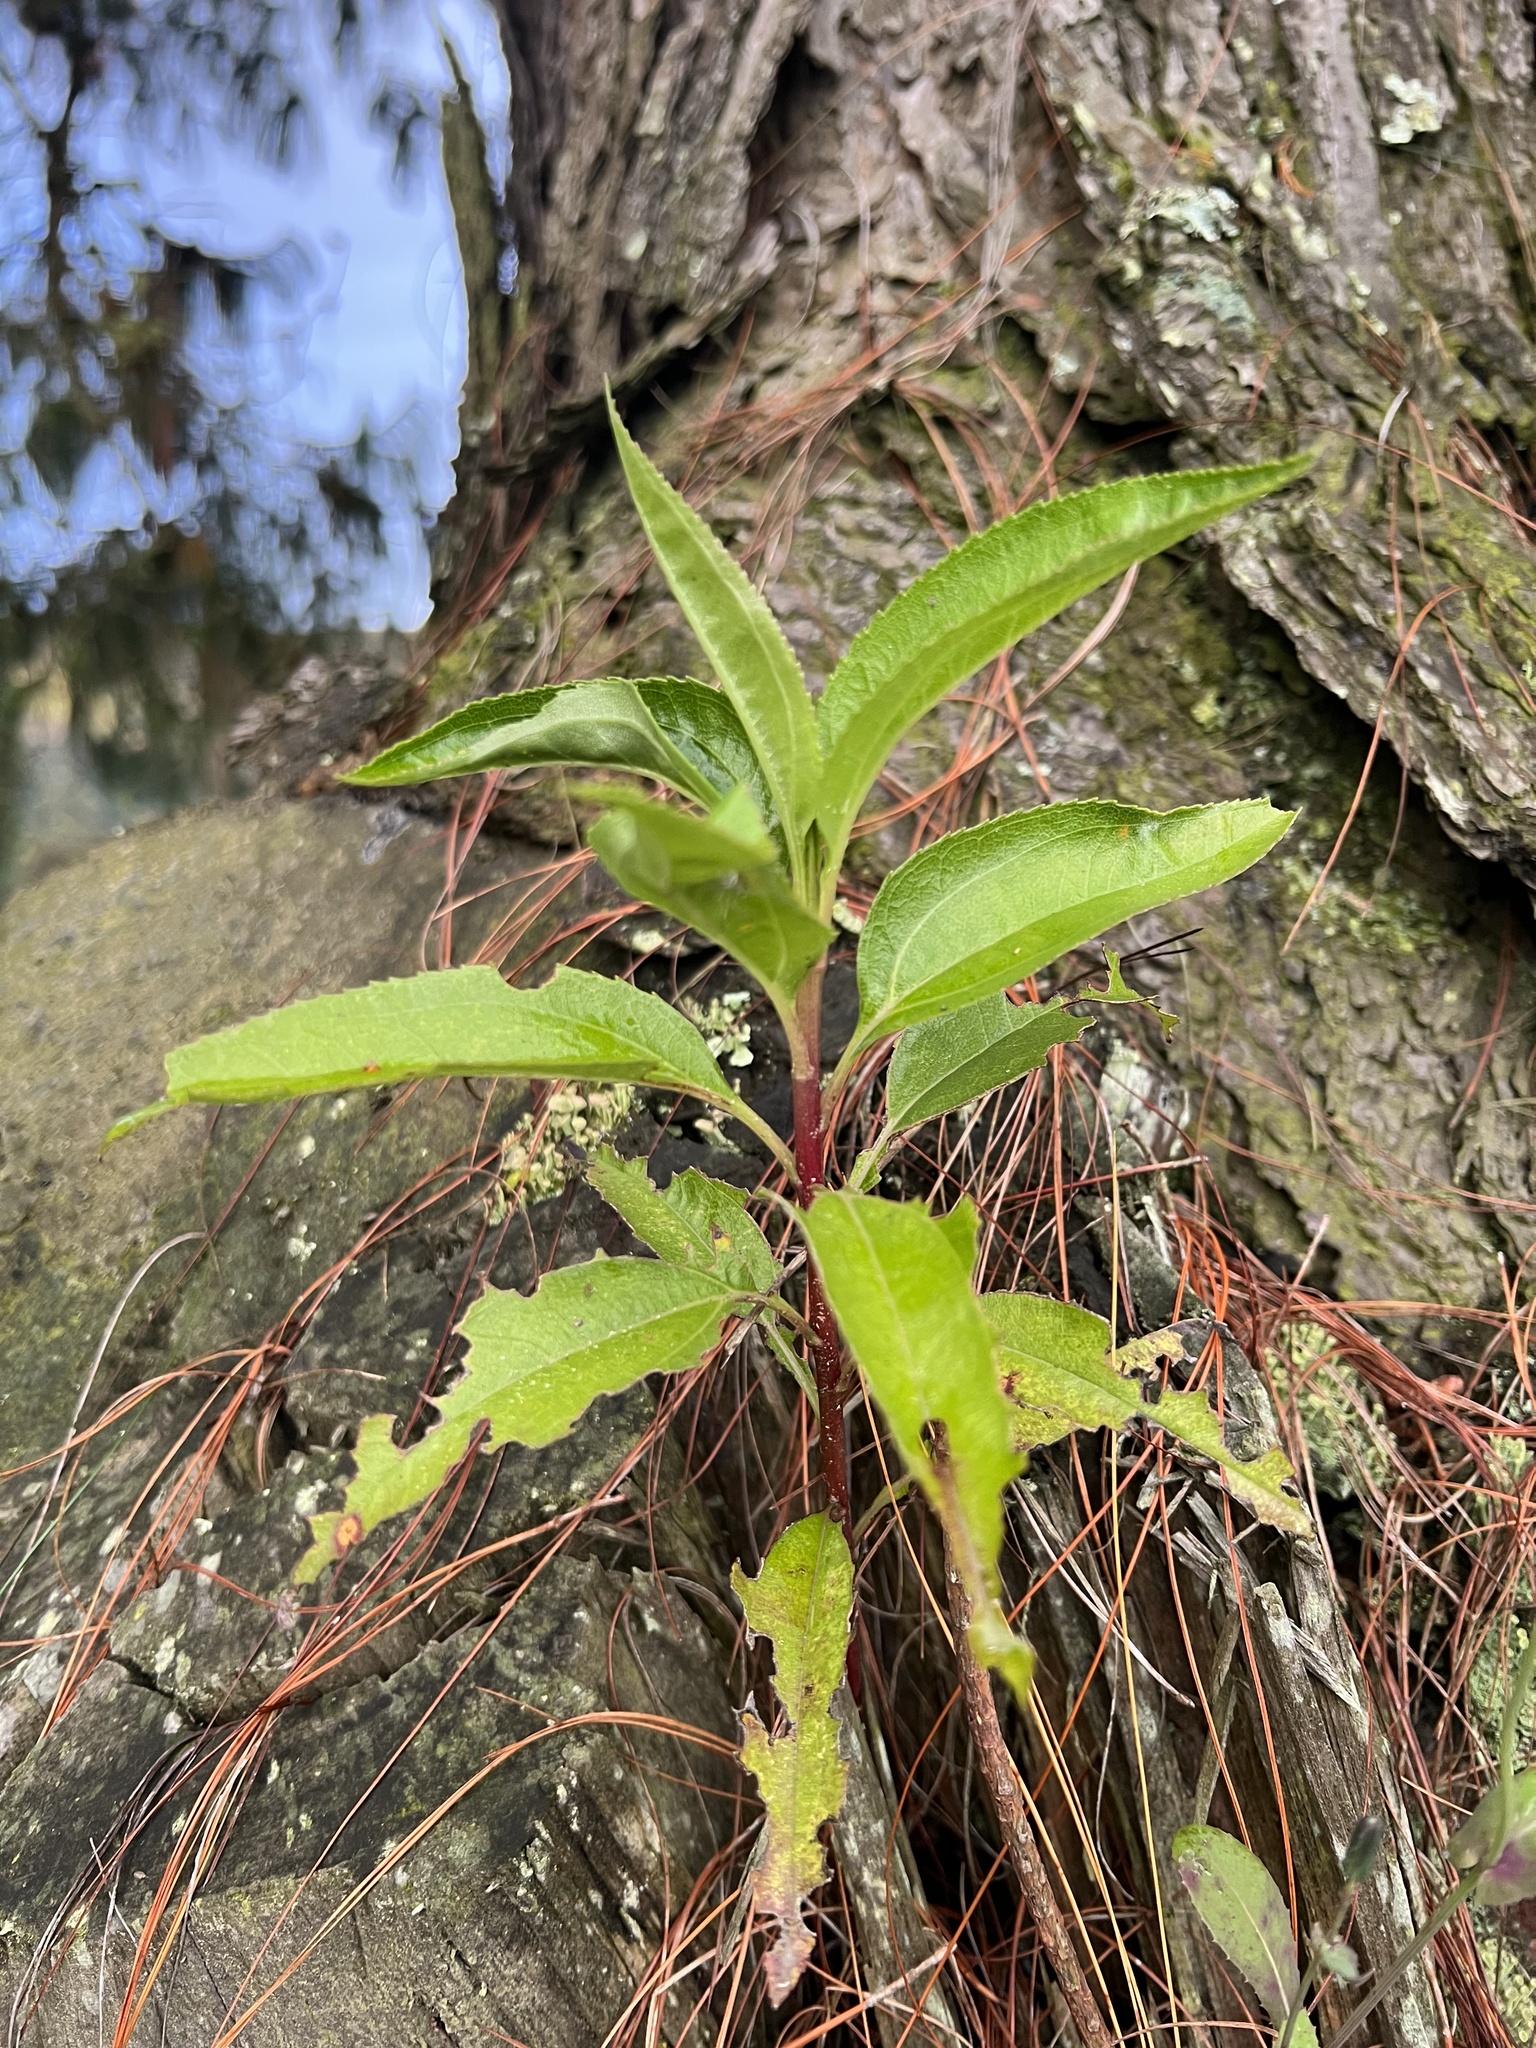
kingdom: Plantae
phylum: Tracheophyta
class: Magnoliopsida
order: Asterales
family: Asteraceae
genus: Baccharis
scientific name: Baccharis latifolia
